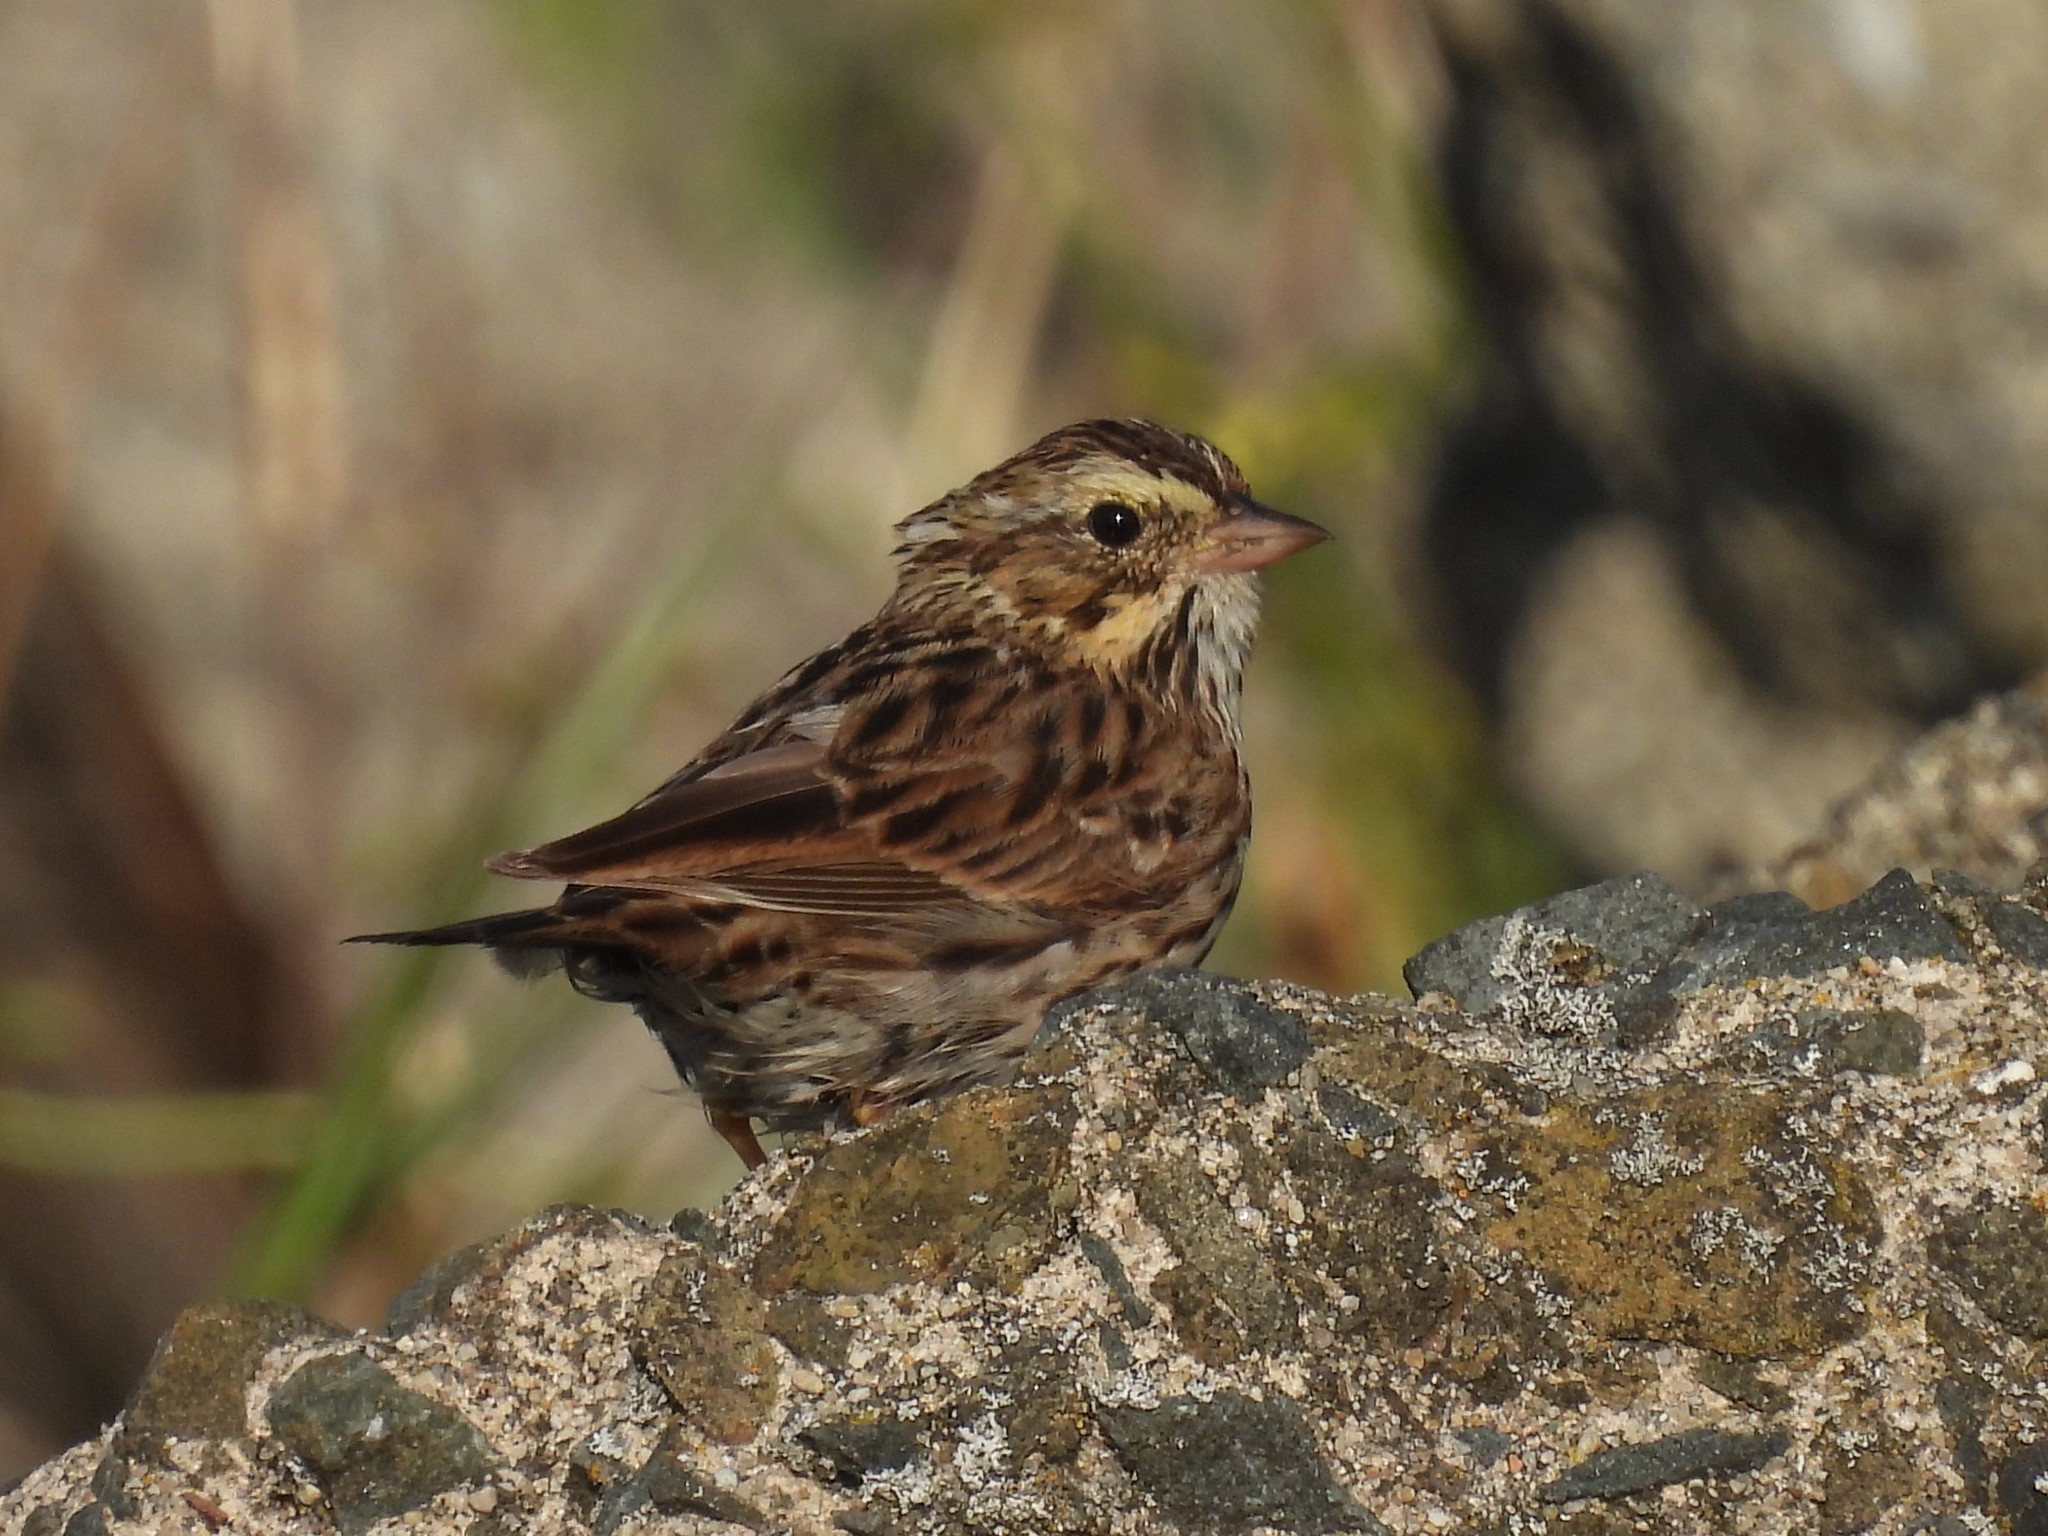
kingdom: Animalia
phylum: Chordata
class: Aves
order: Passeriformes
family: Passerellidae
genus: Passerculus
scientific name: Passerculus sandwichensis
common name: Savannah sparrow
